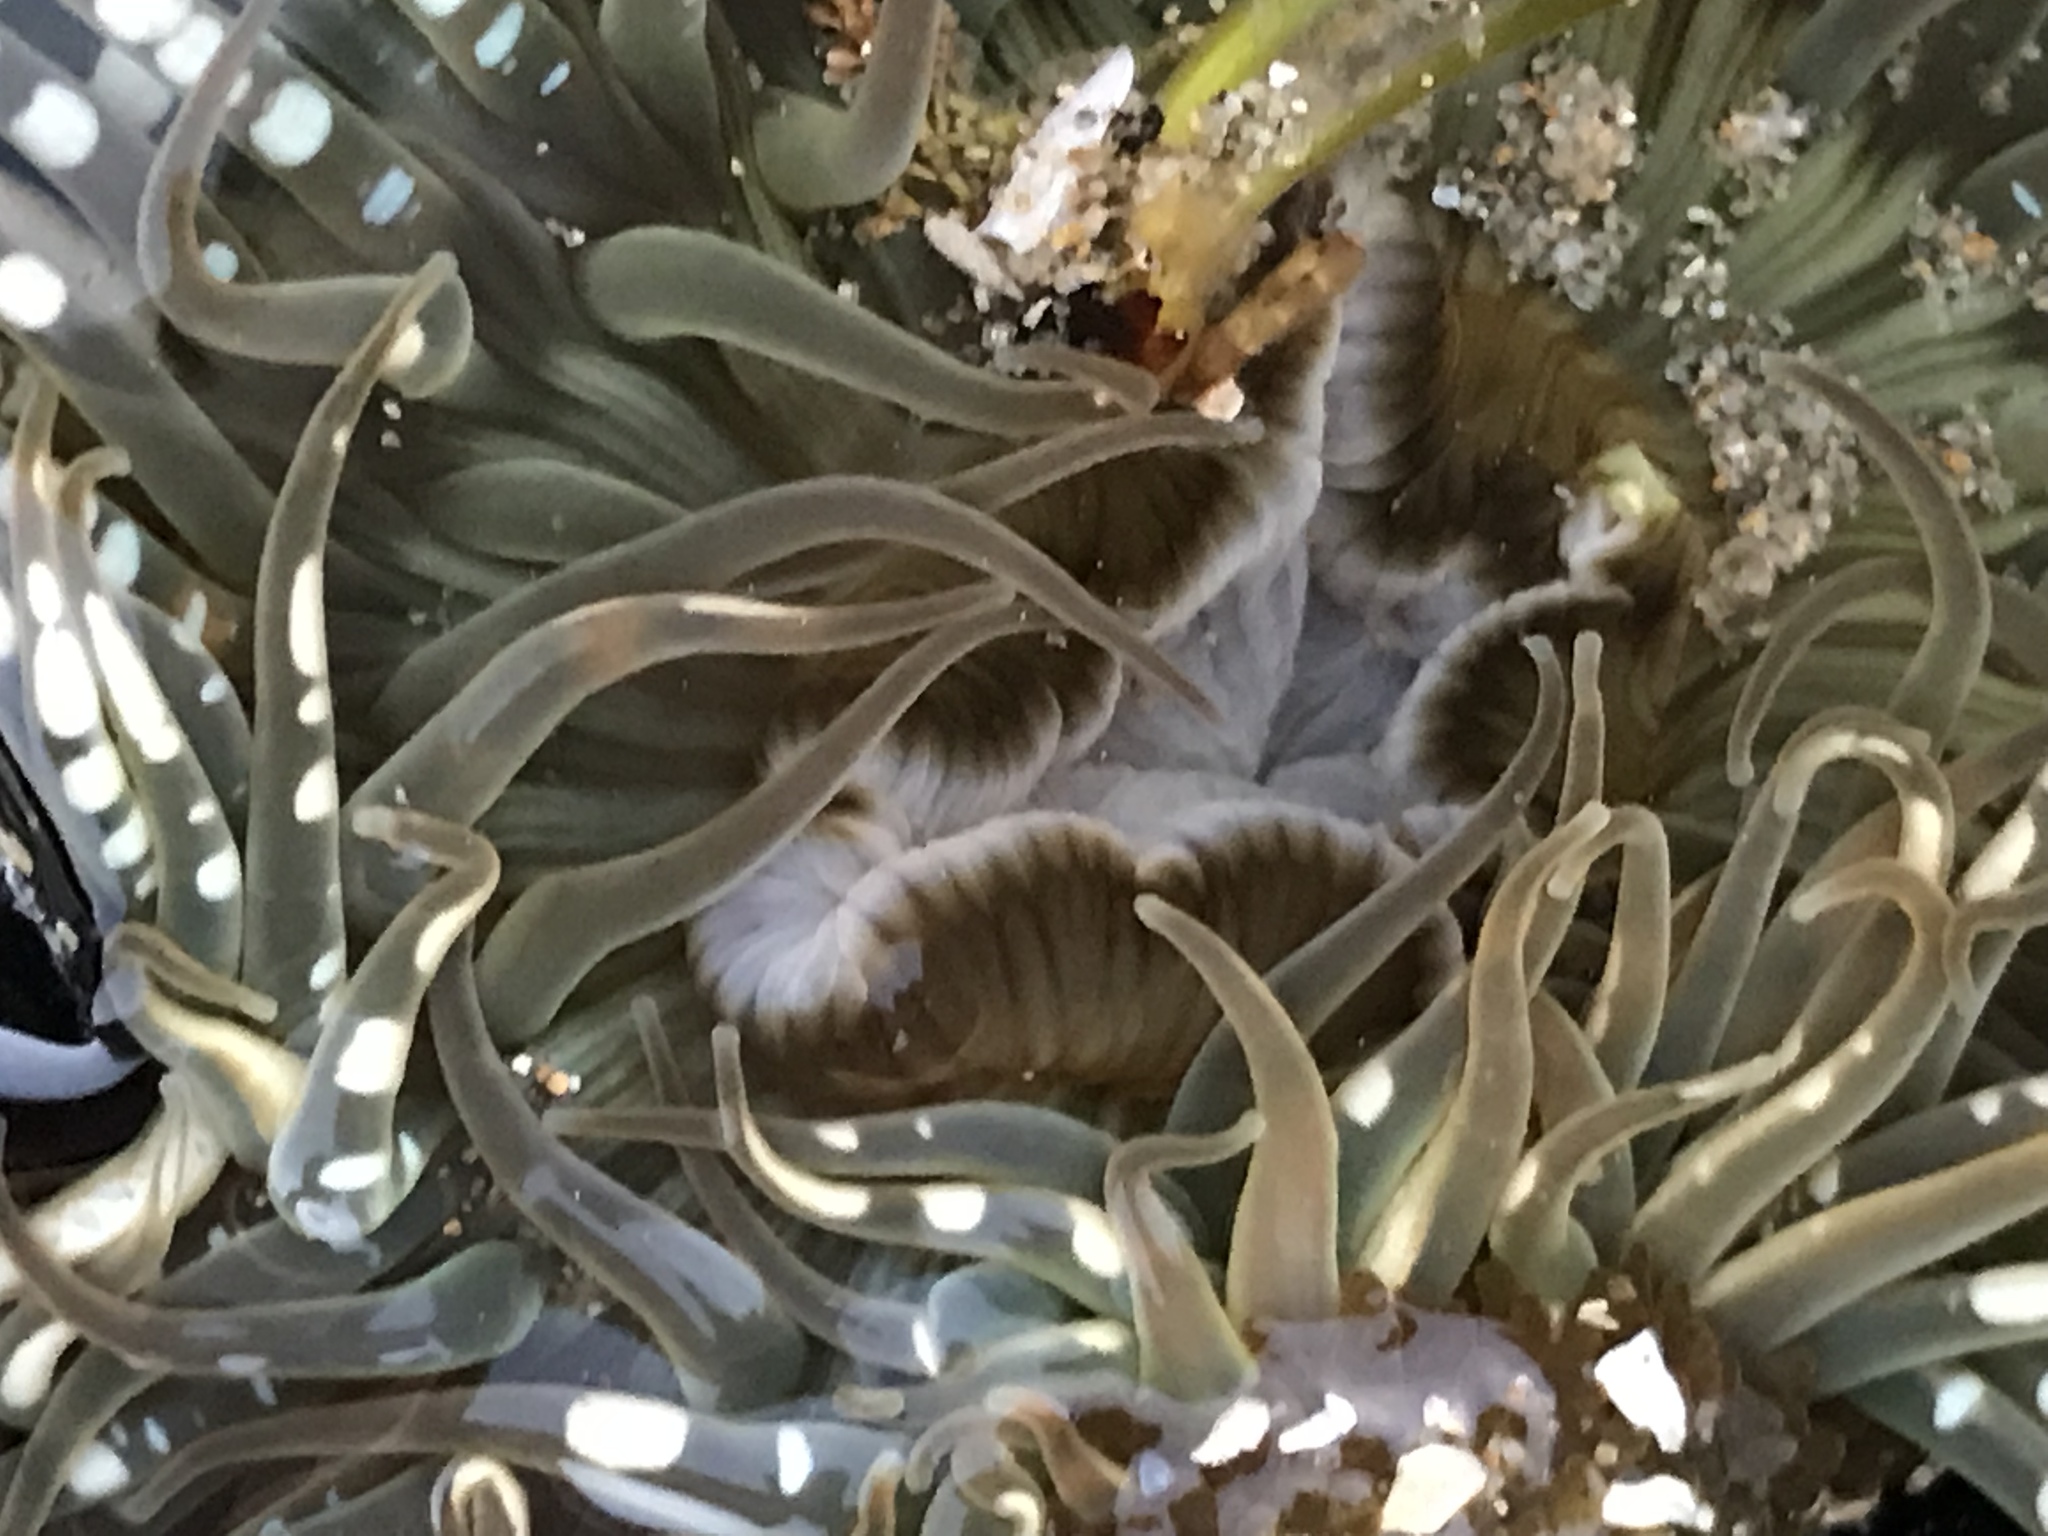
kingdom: Animalia
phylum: Cnidaria
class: Anthozoa
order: Actiniaria
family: Actiniidae
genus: Anthopleura
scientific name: Anthopleura sola
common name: Sun anemone
